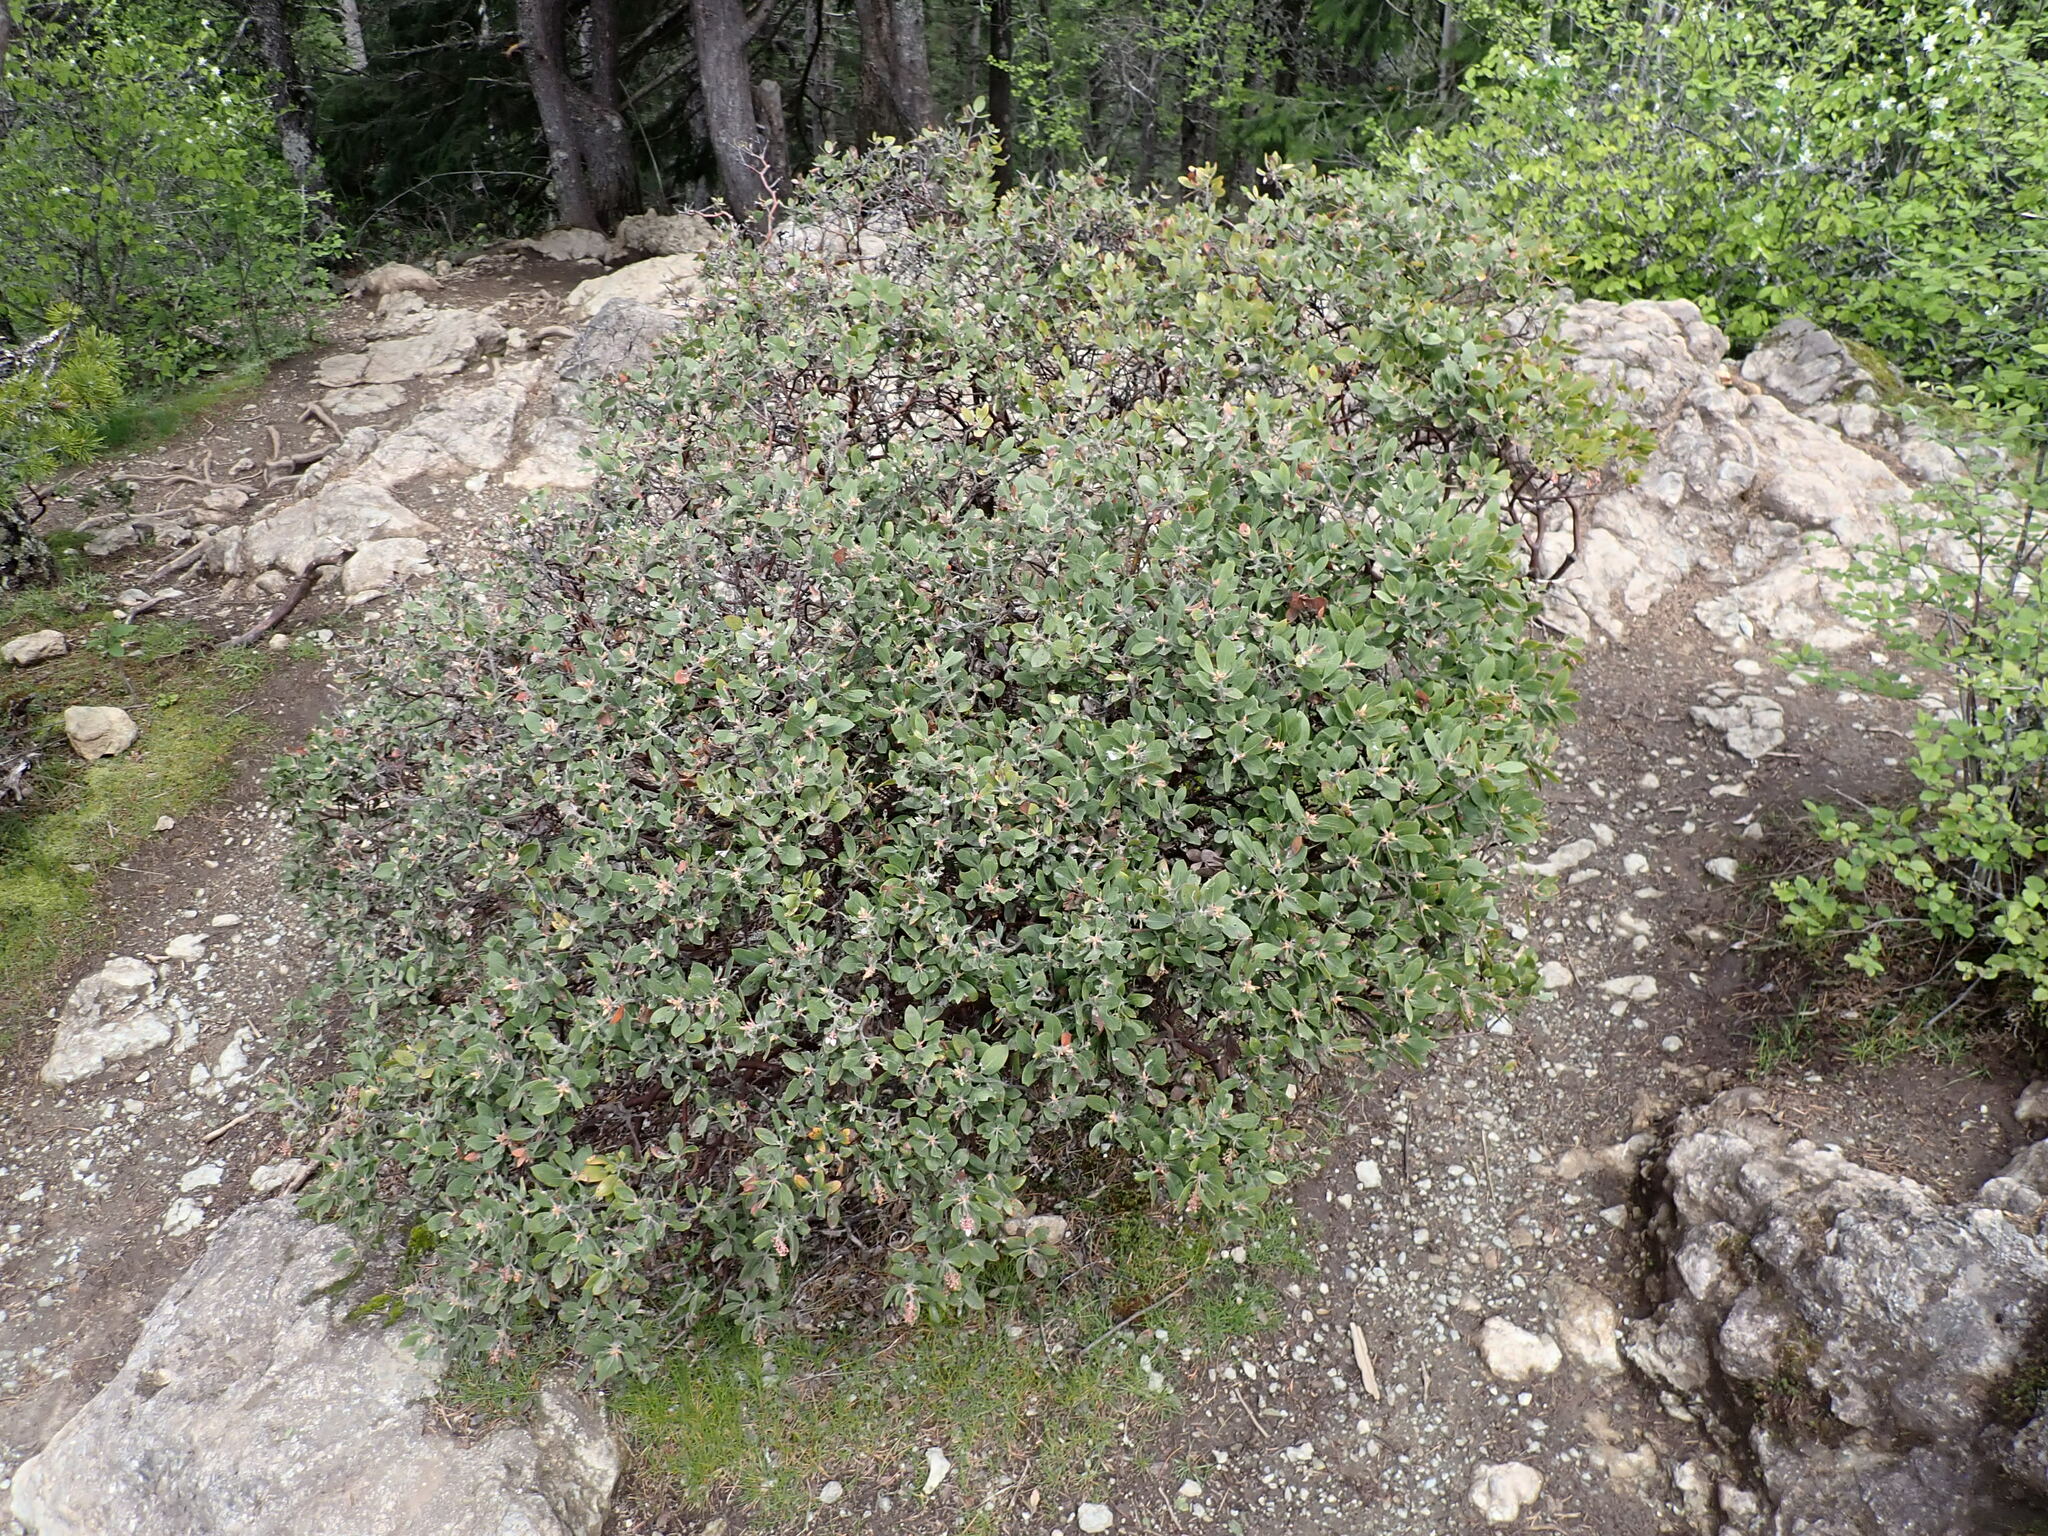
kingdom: Plantae
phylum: Tracheophyta
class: Magnoliopsida
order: Ericales
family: Ericaceae
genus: Arctostaphylos
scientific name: Arctostaphylos columbiana
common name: Bristly bearberry
